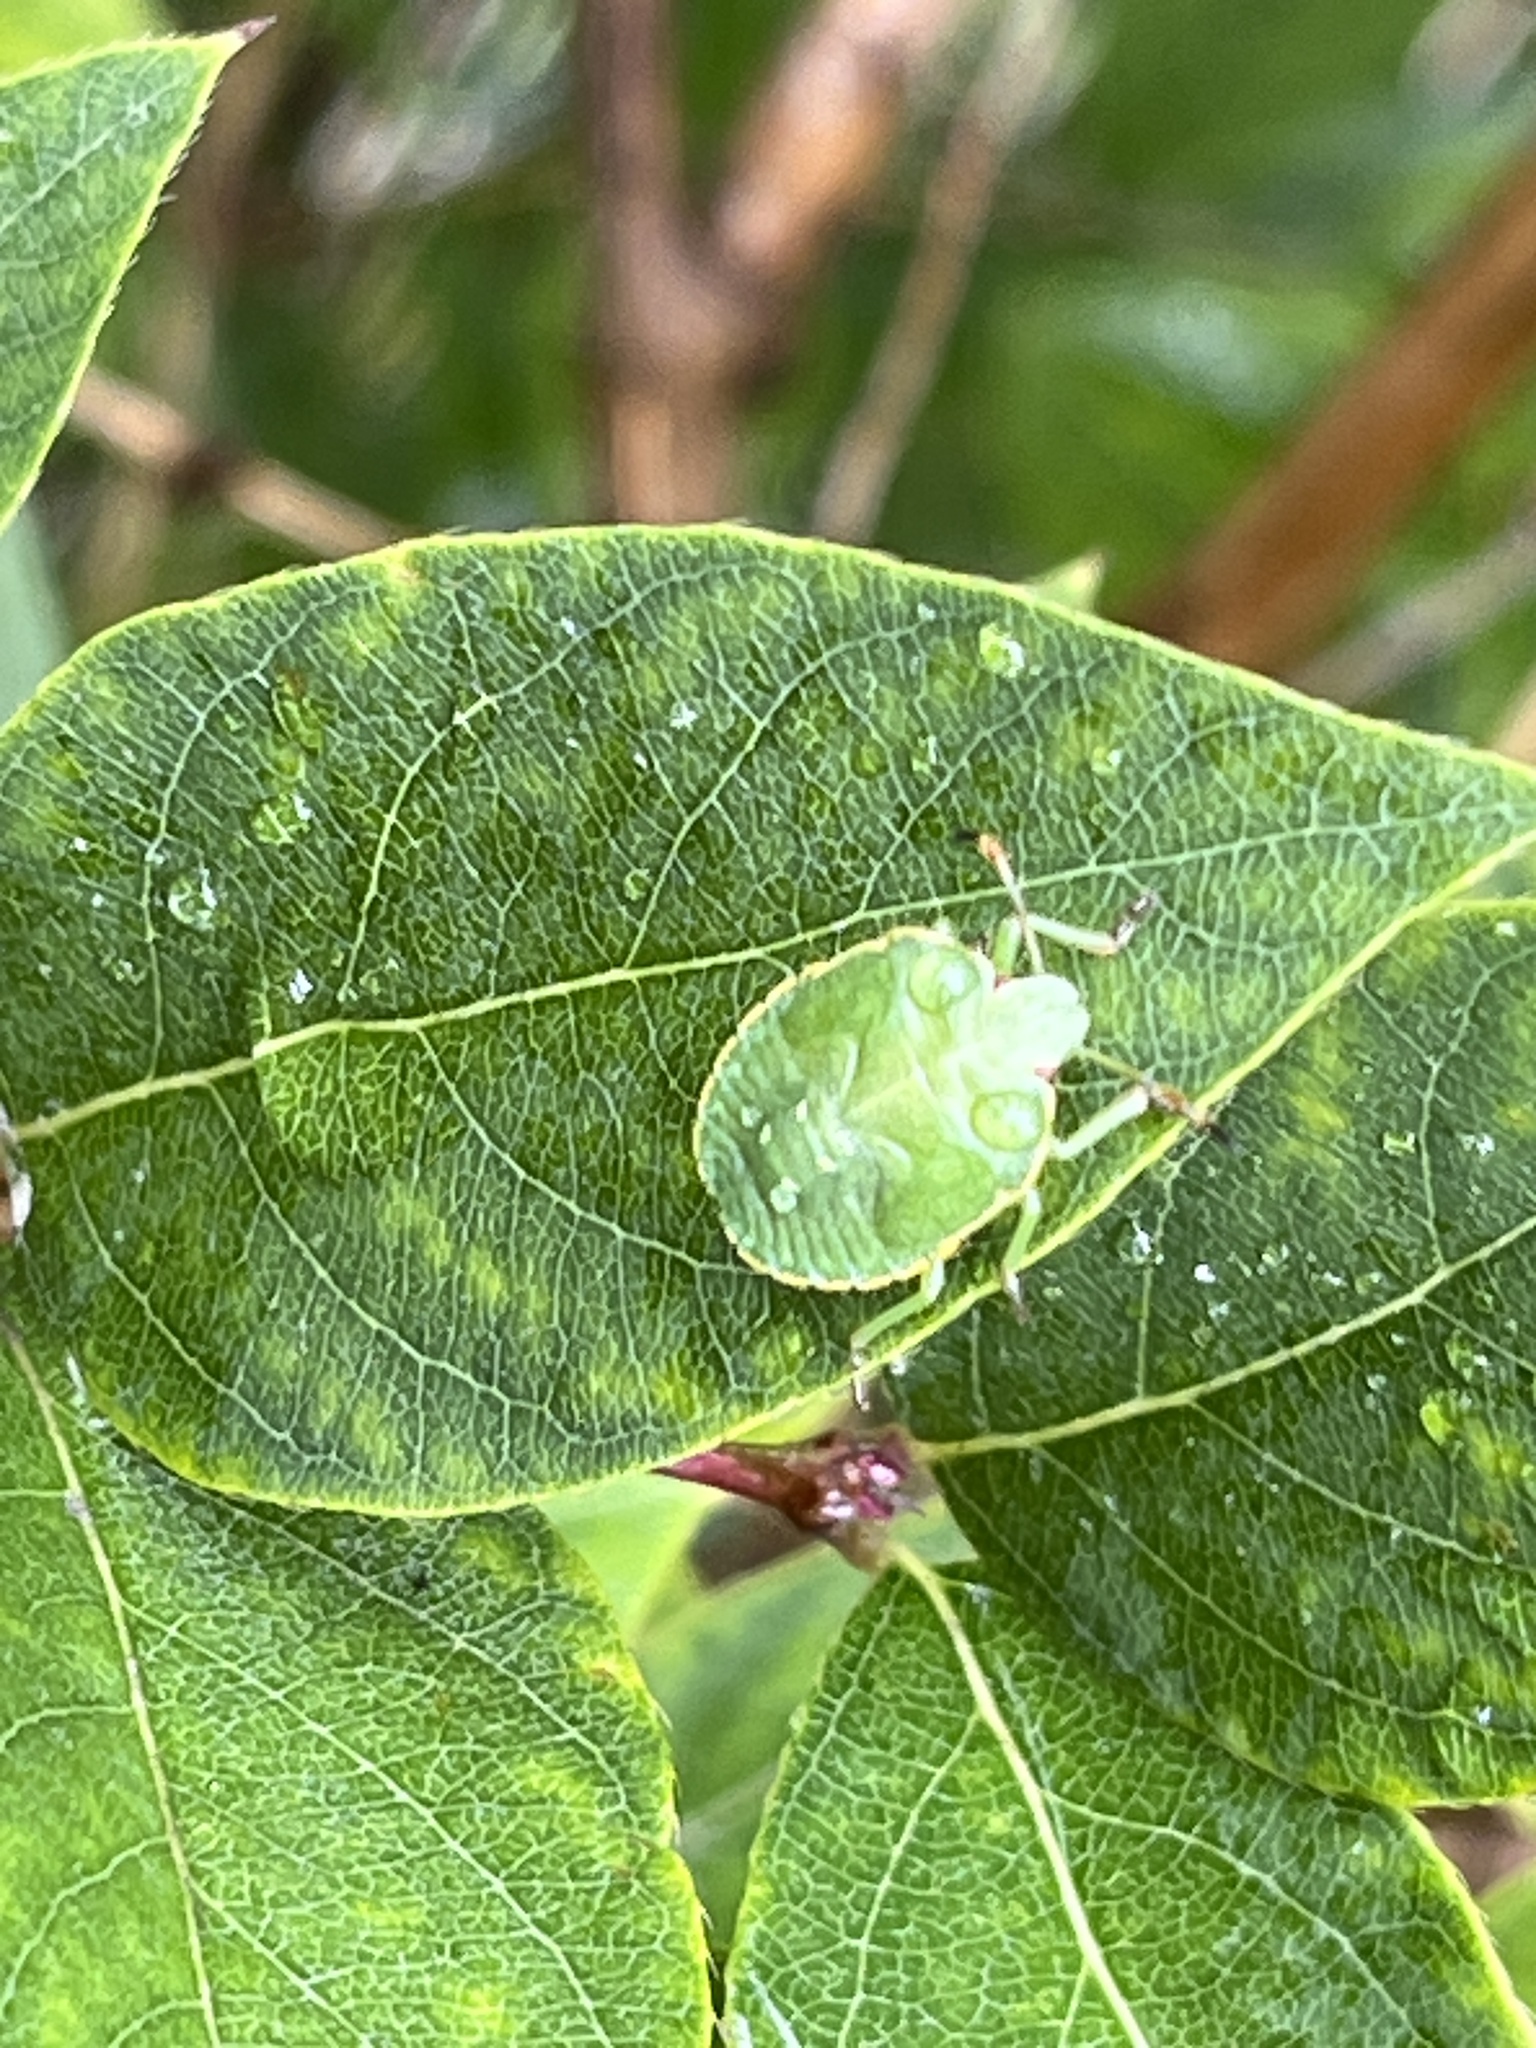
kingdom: Animalia
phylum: Arthropoda
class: Insecta
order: Hemiptera
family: Pentatomidae
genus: Palomena
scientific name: Palomena prasina
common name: Green shieldbug
